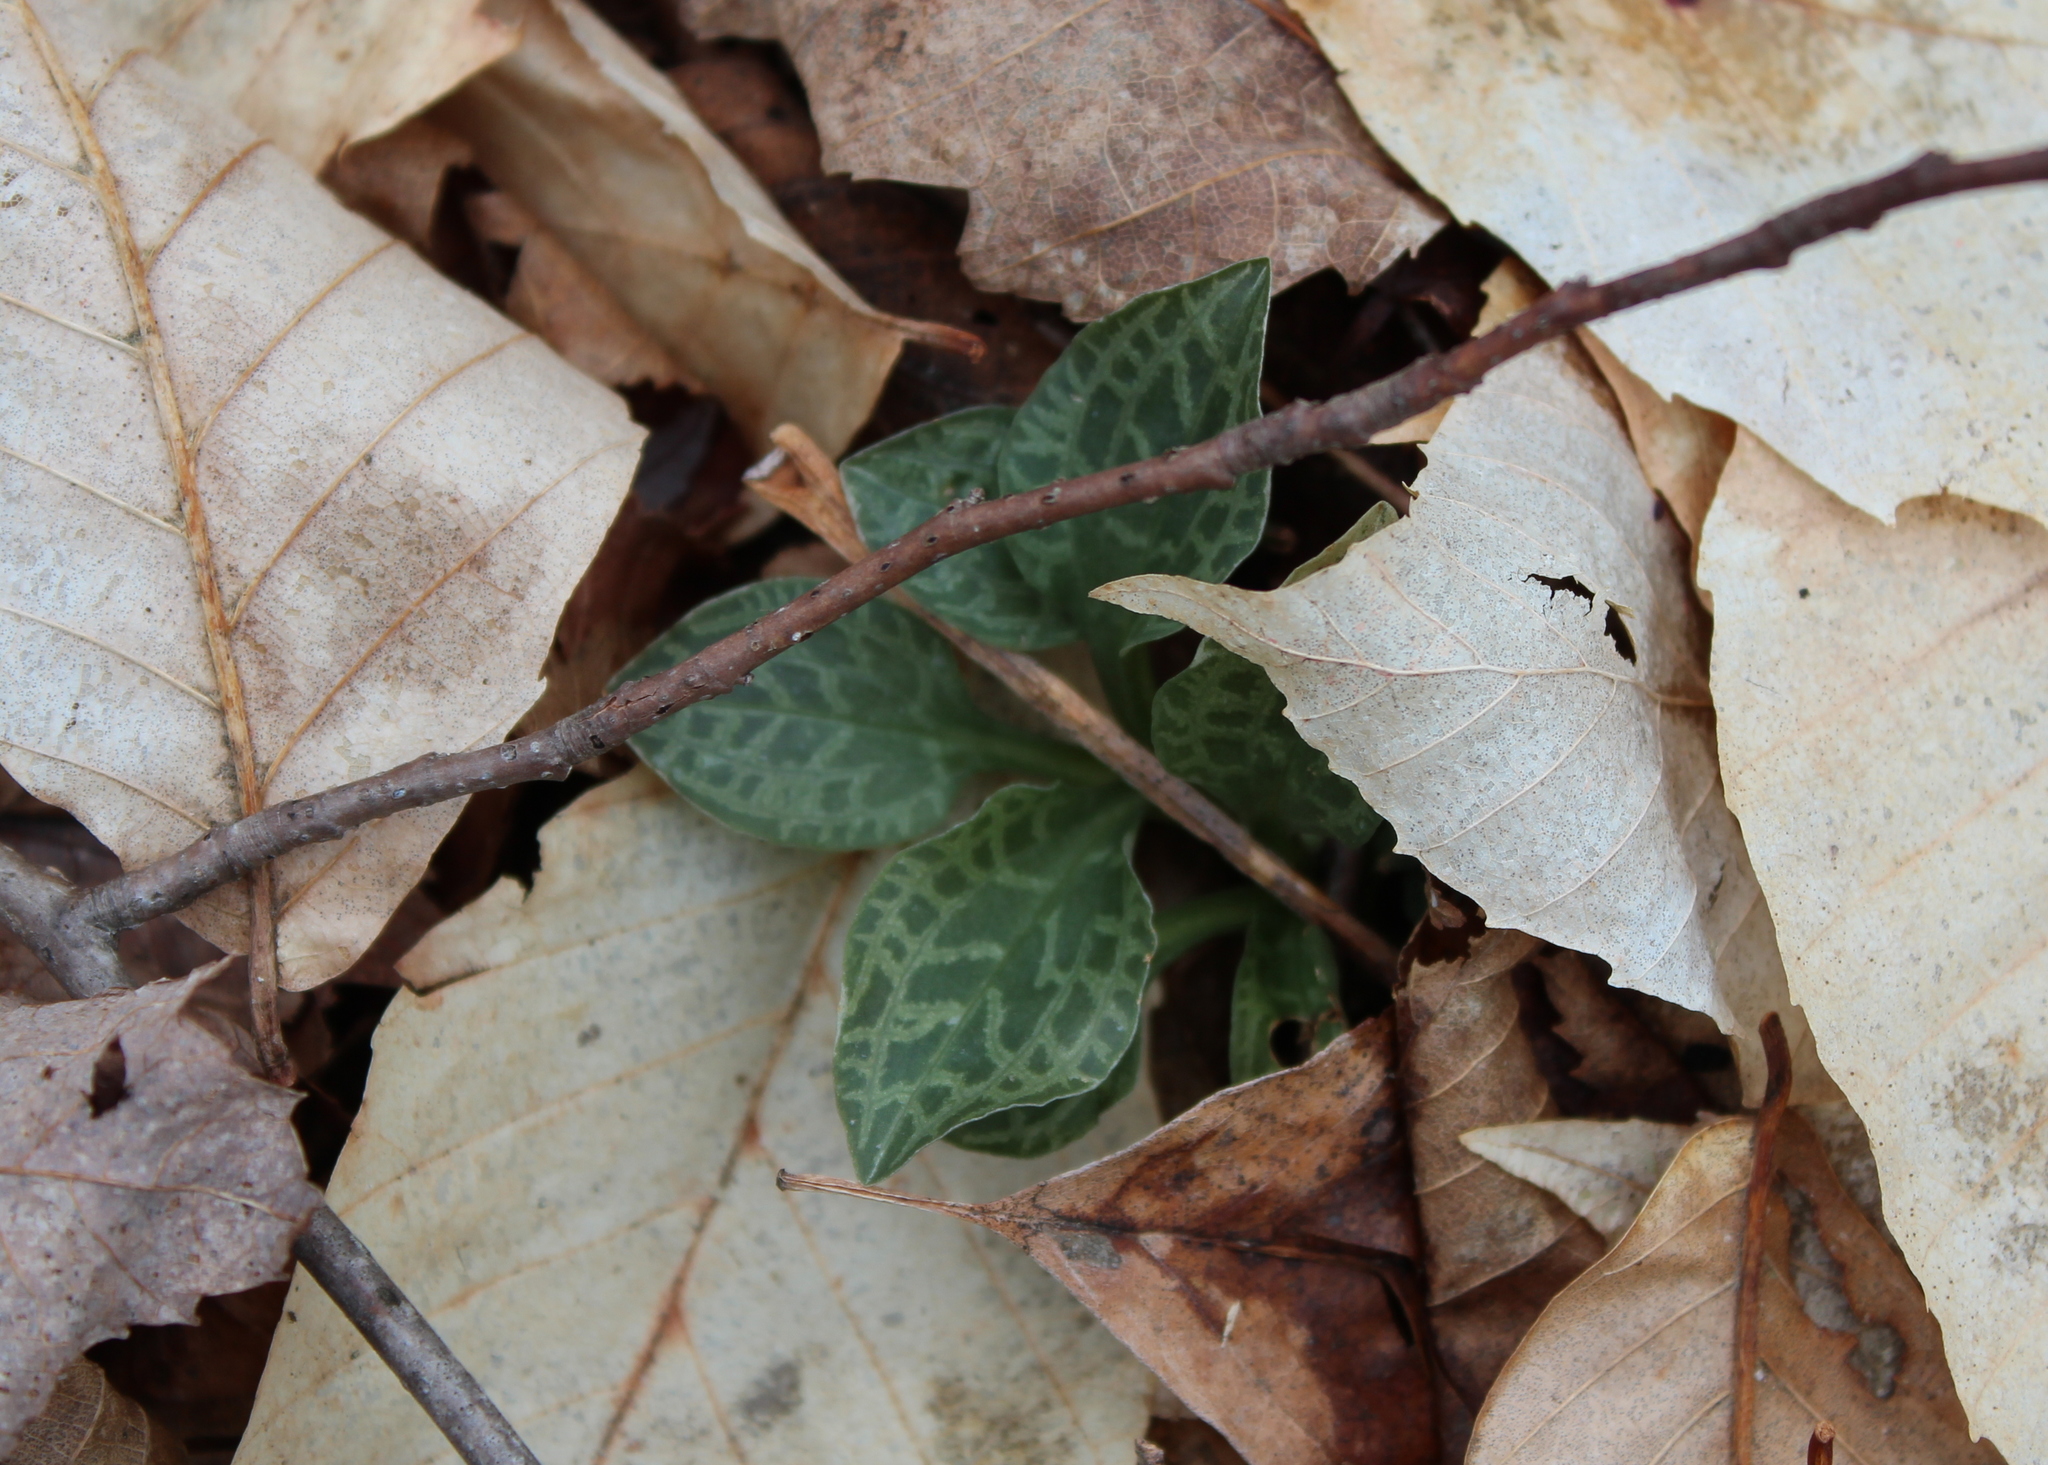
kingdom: Plantae
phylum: Tracheophyta
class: Liliopsida
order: Asparagales
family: Orchidaceae
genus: Goodyera
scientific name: Goodyera tesselata
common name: Checkered rattlesnake-plantain
